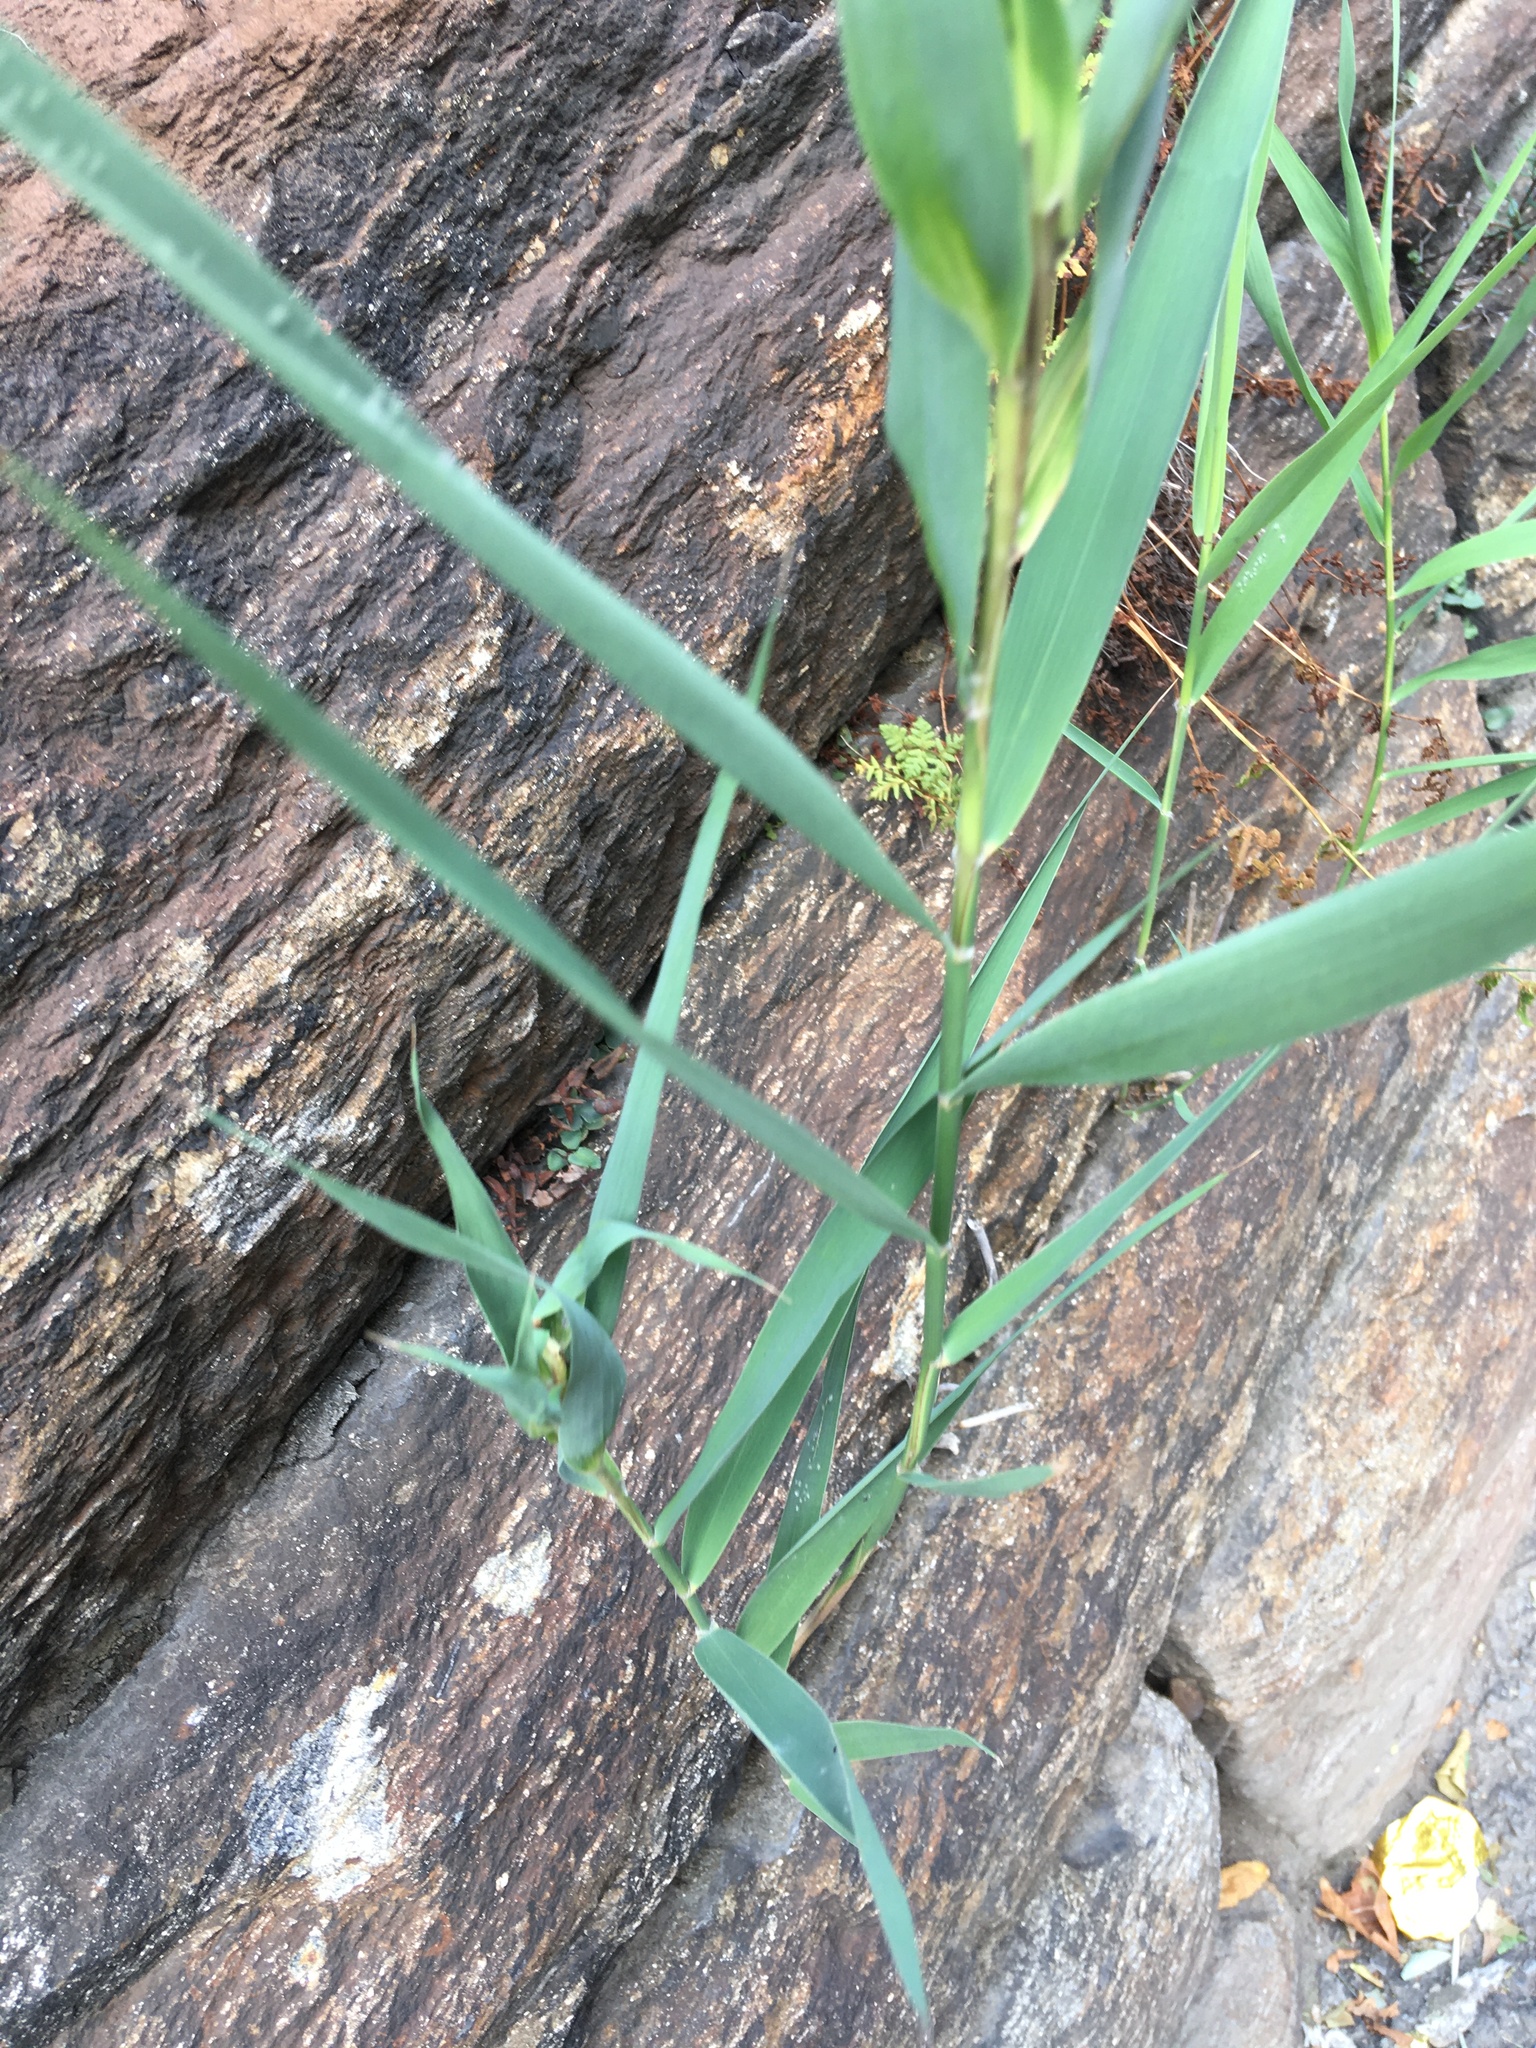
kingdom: Plantae
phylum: Tracheophyta
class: Liliopsida
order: Poales
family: Poaceae
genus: Phragmites
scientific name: Phragmites australis
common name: Common reed
